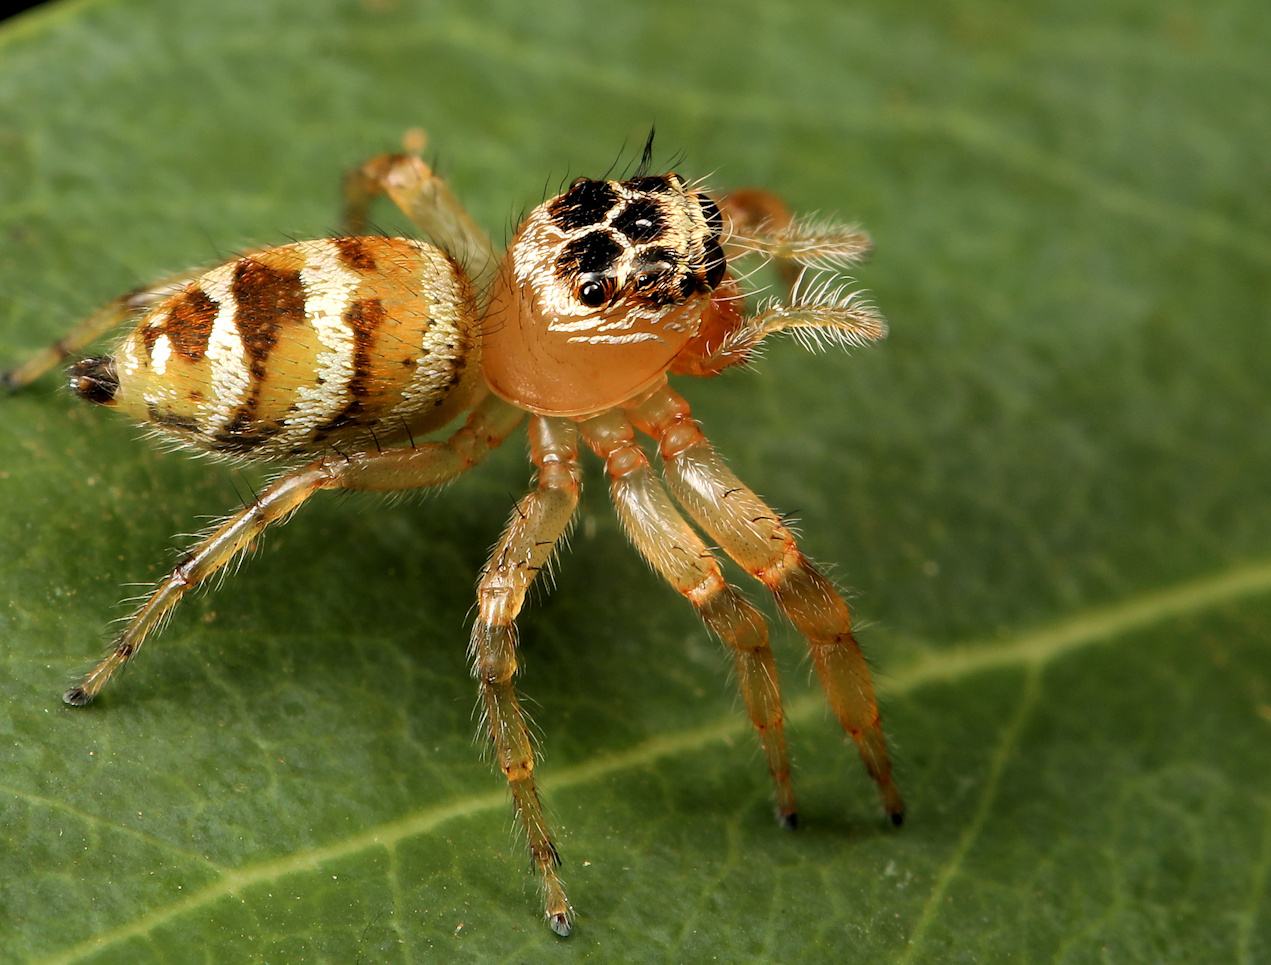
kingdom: Animalia
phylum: Arthropoda
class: Arachnida
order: Araneae
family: Salticidae
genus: Thyene
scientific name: Thyene natalii
